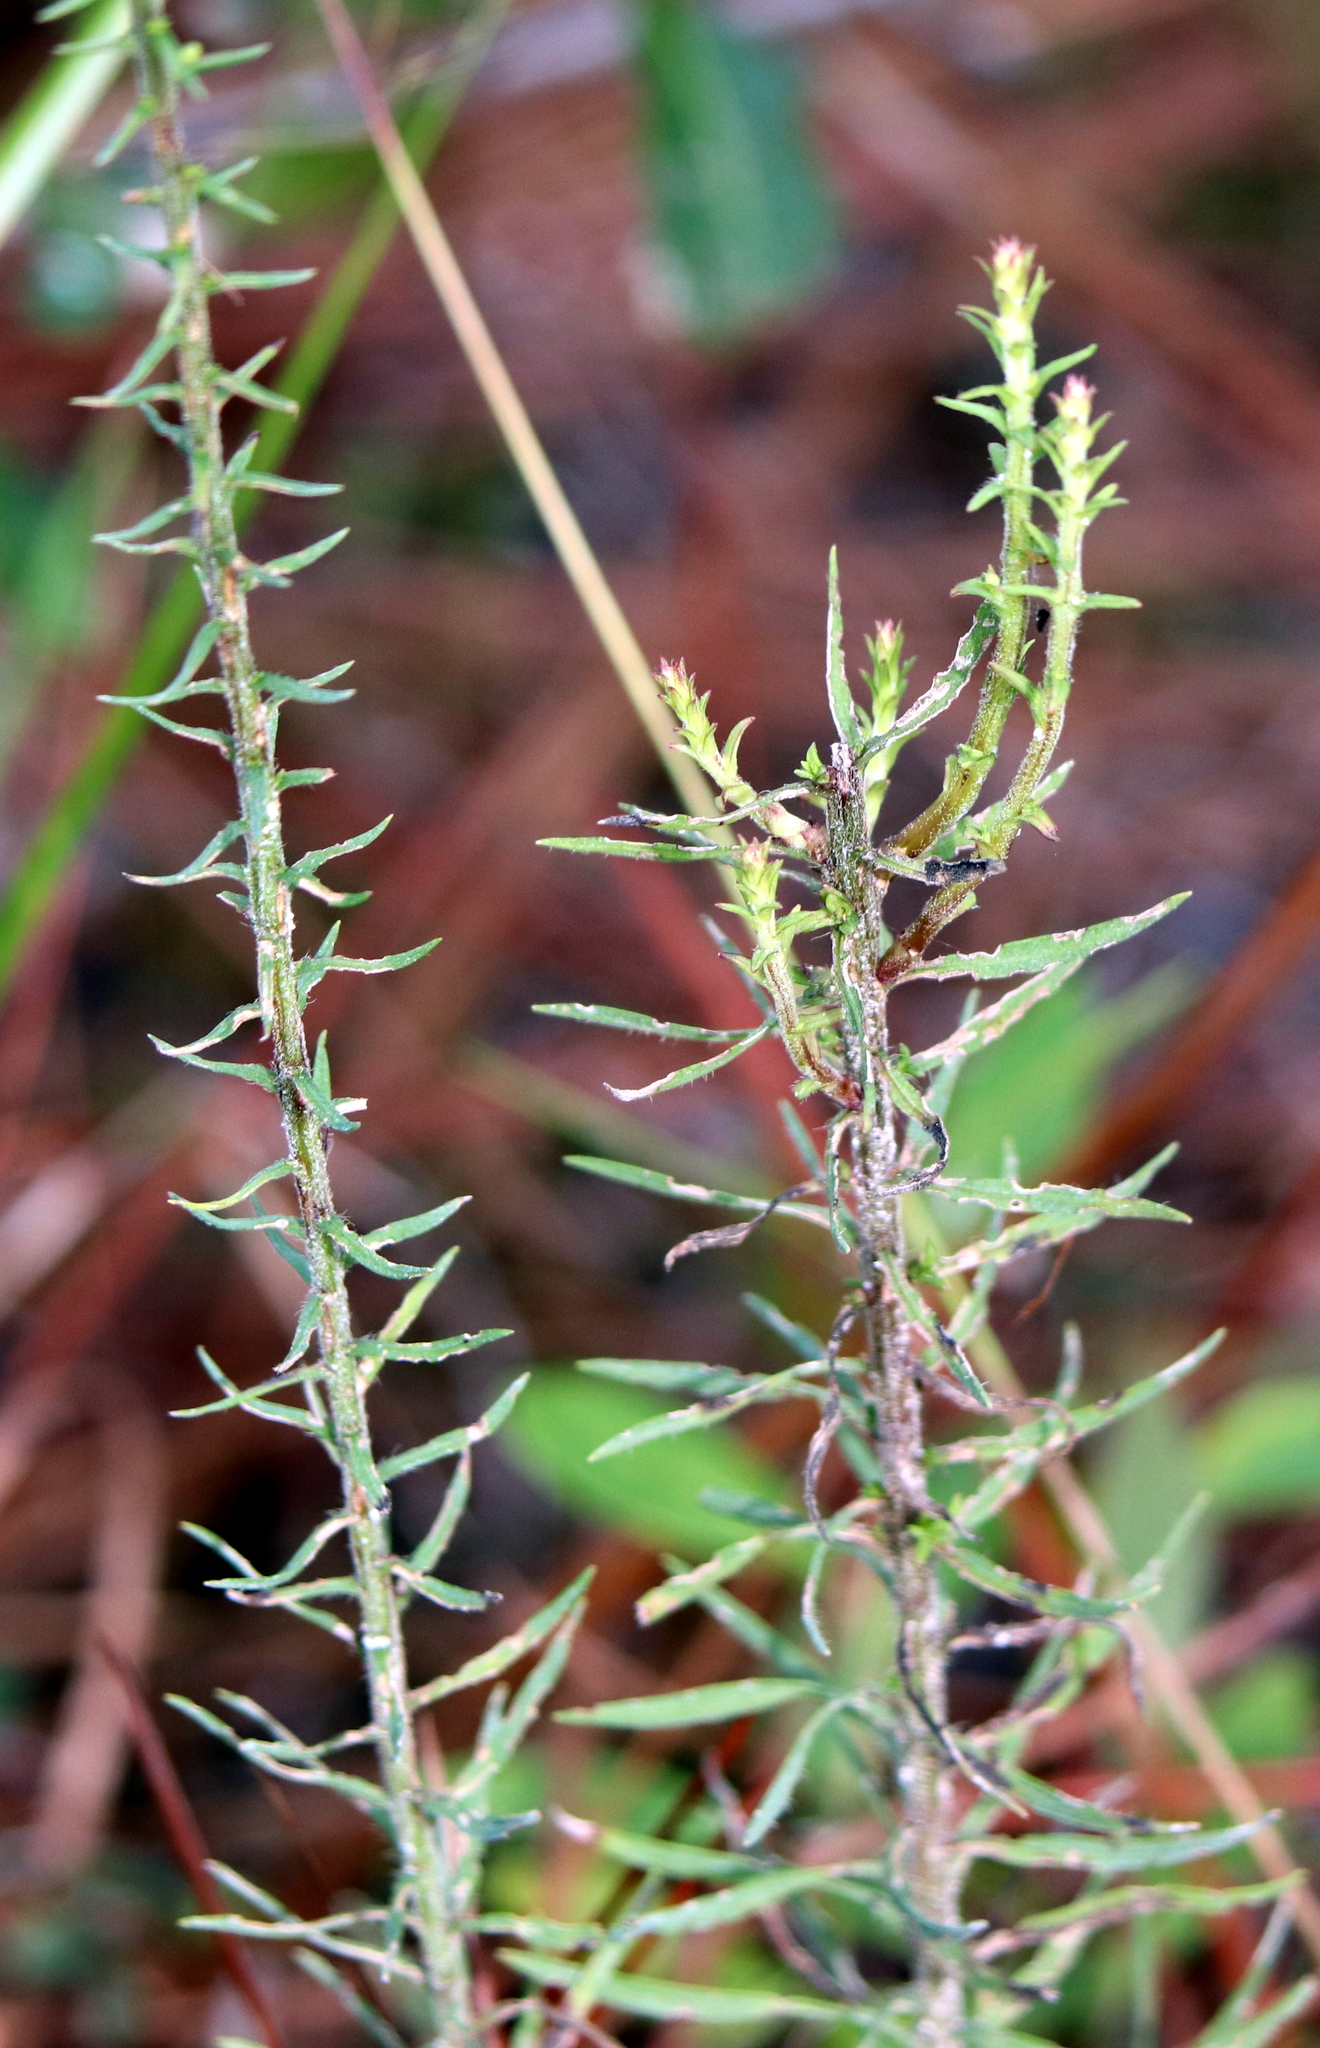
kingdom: Plantae
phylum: Tracheophyta
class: Magnoliopsida
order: Asterales
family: Asteraceae
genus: Ionactis
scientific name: Ionactis repens
